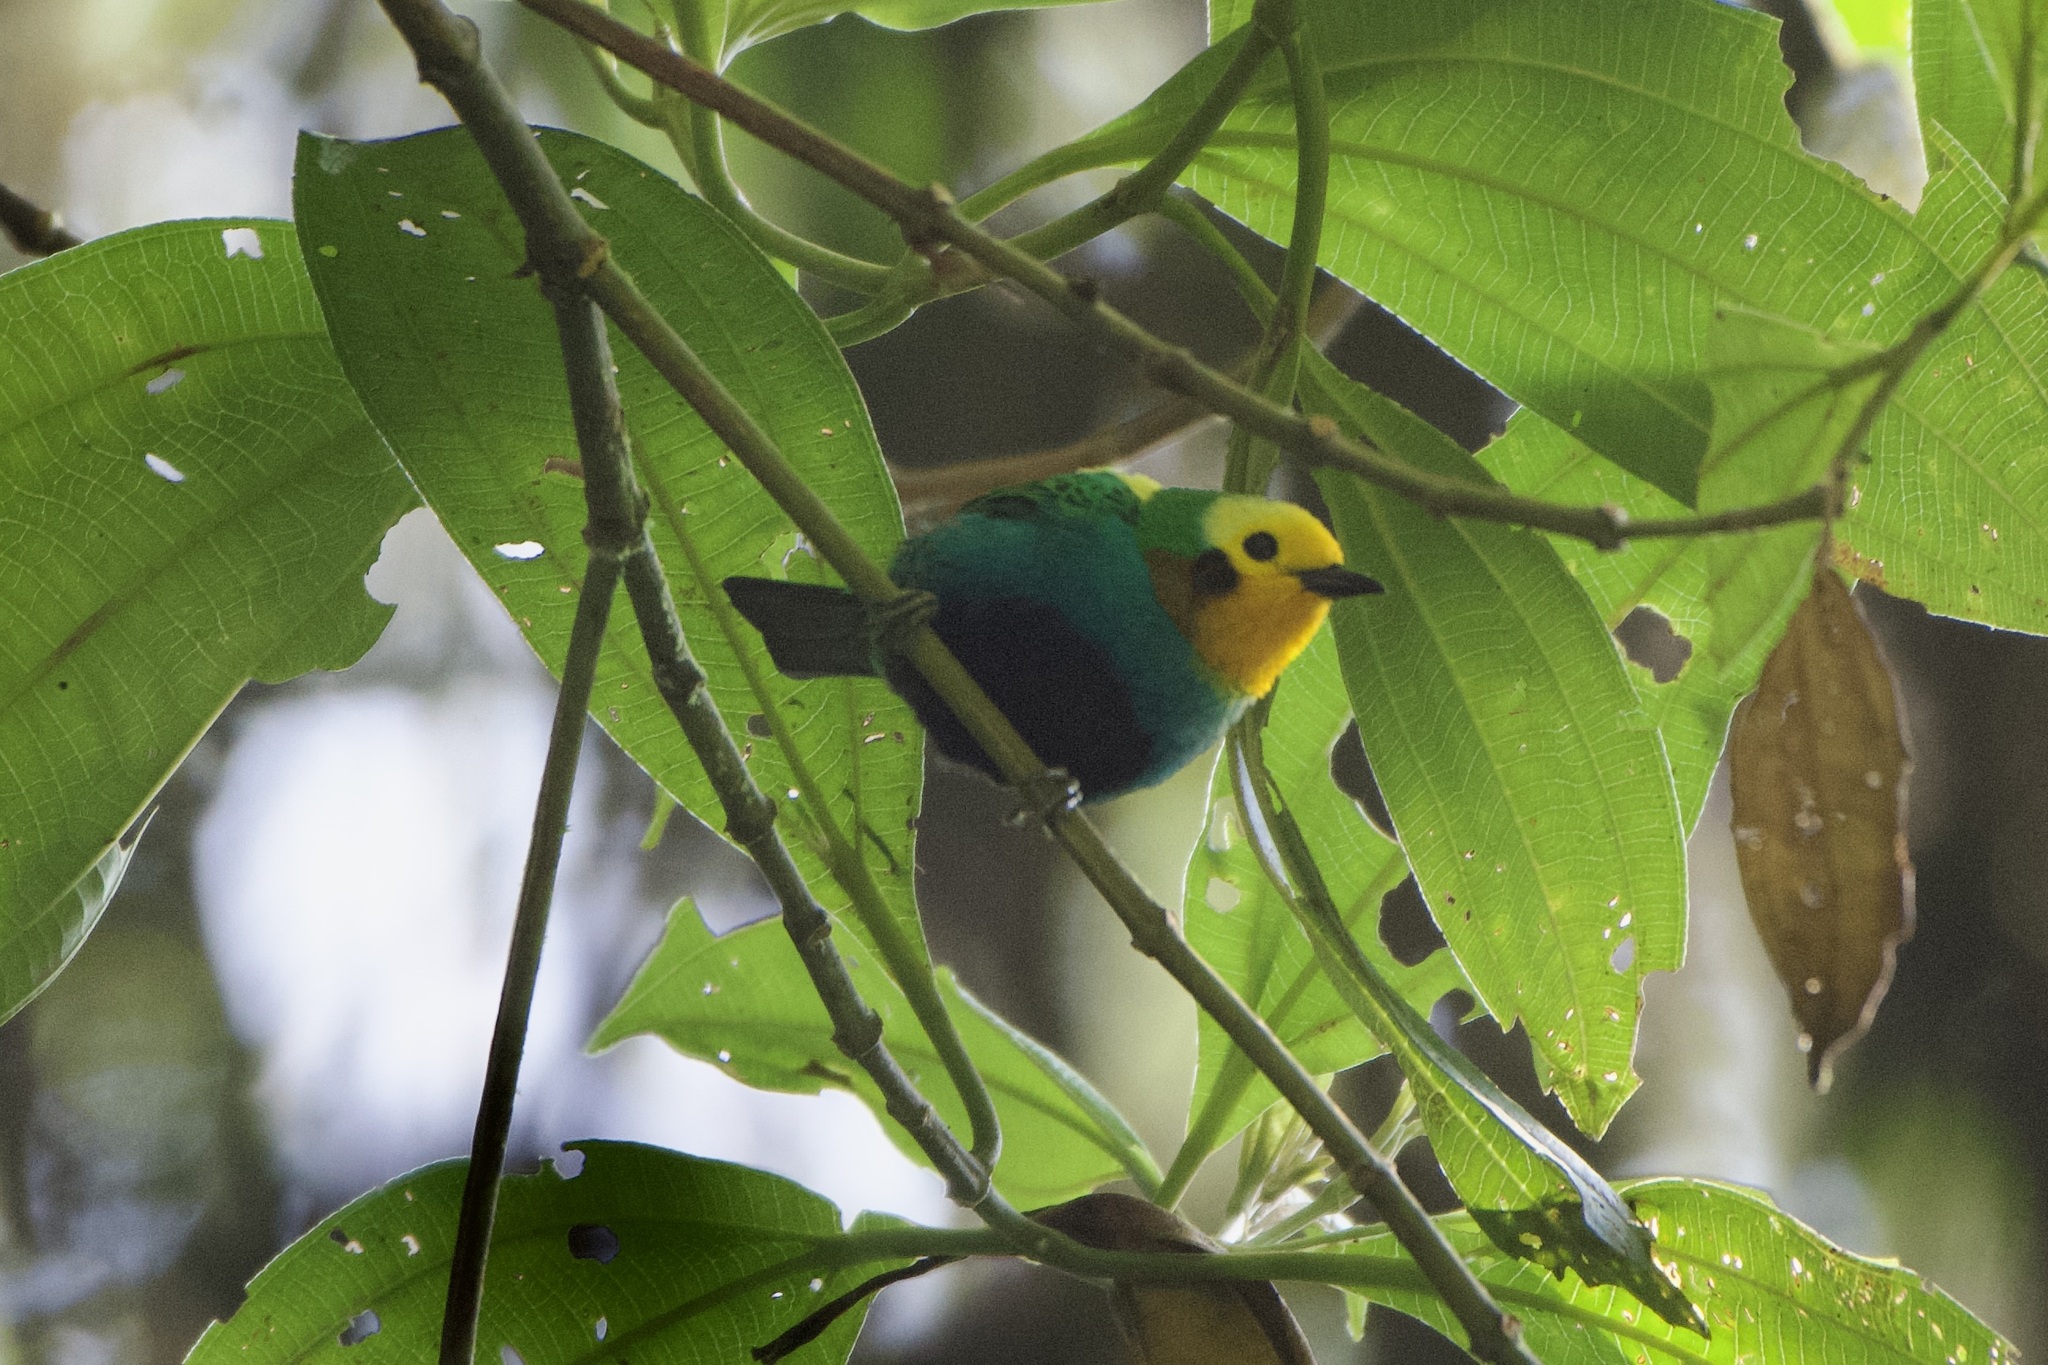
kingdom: Animalia
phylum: Chordata
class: Aves
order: Passeriformes
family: Thraupidae
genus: Chlorochrysa
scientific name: Chlorochrysa nitidissima
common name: Multicolored tanager
